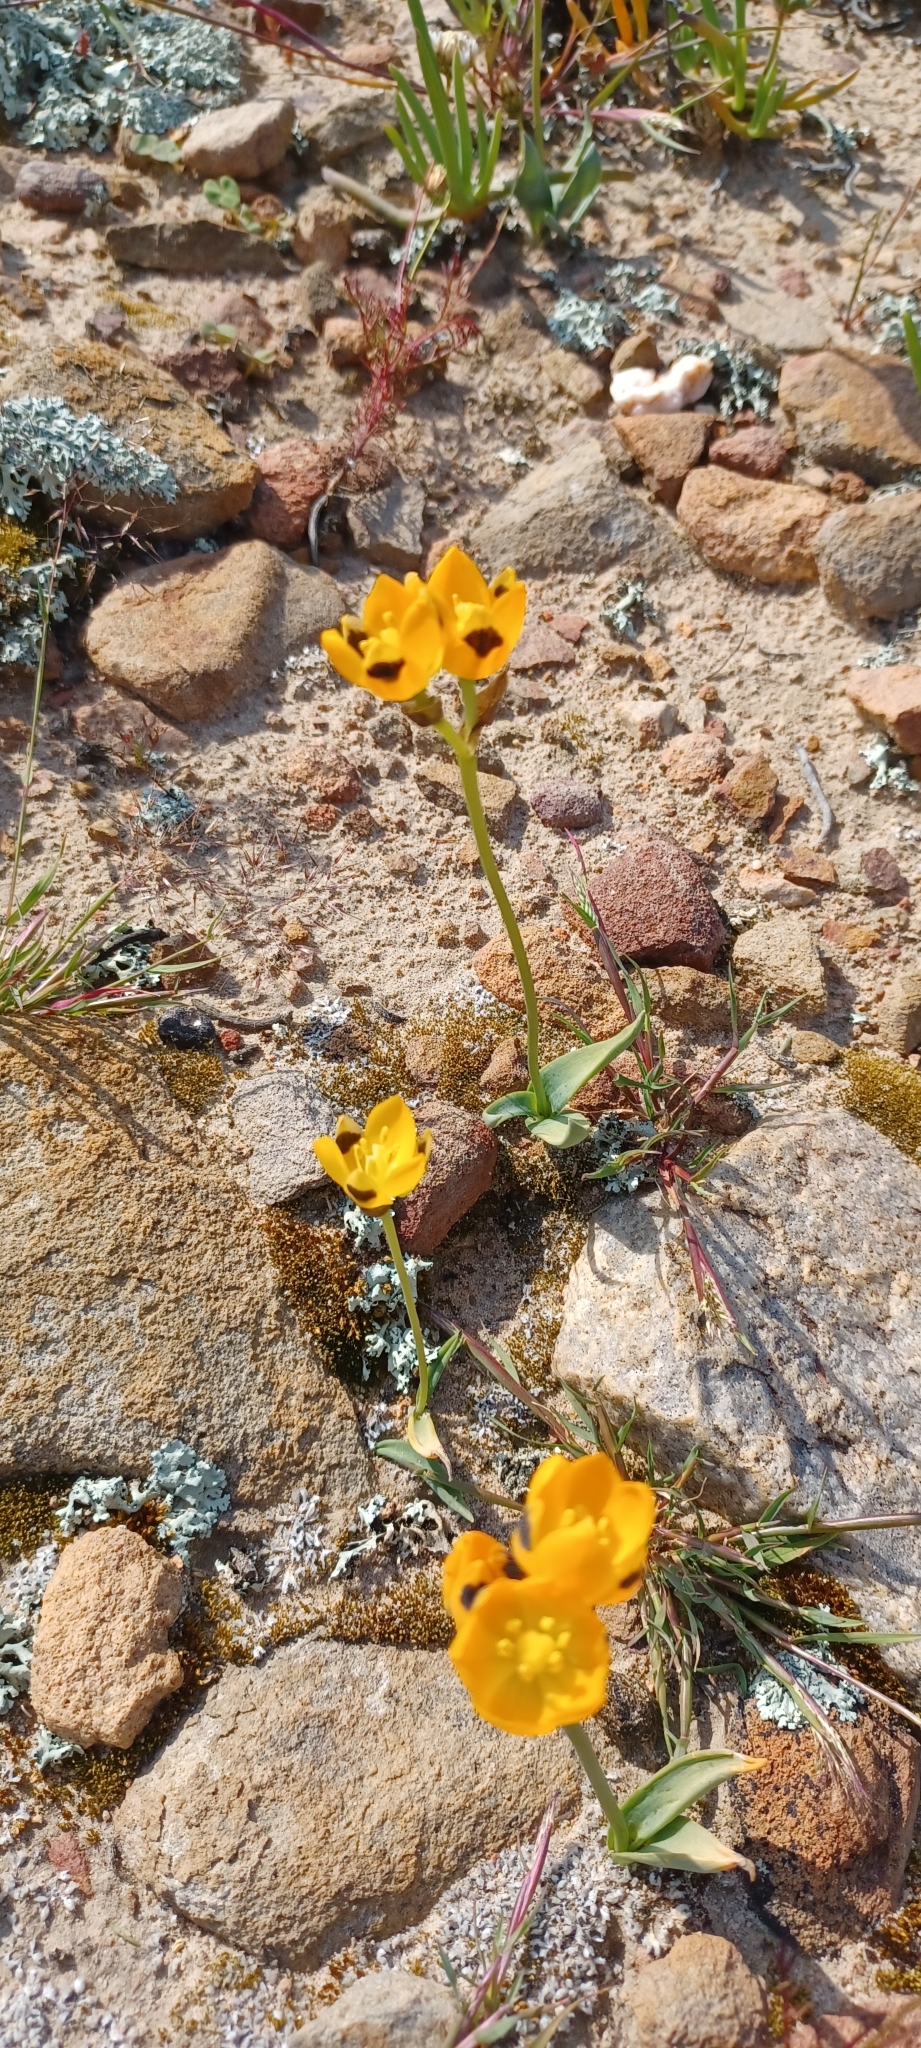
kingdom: Plantae
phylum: Tracheophyta
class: Liliopsida
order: Asparagales
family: Asparagaceae
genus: Ornithogalum
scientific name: Ornithogalum maculatum
